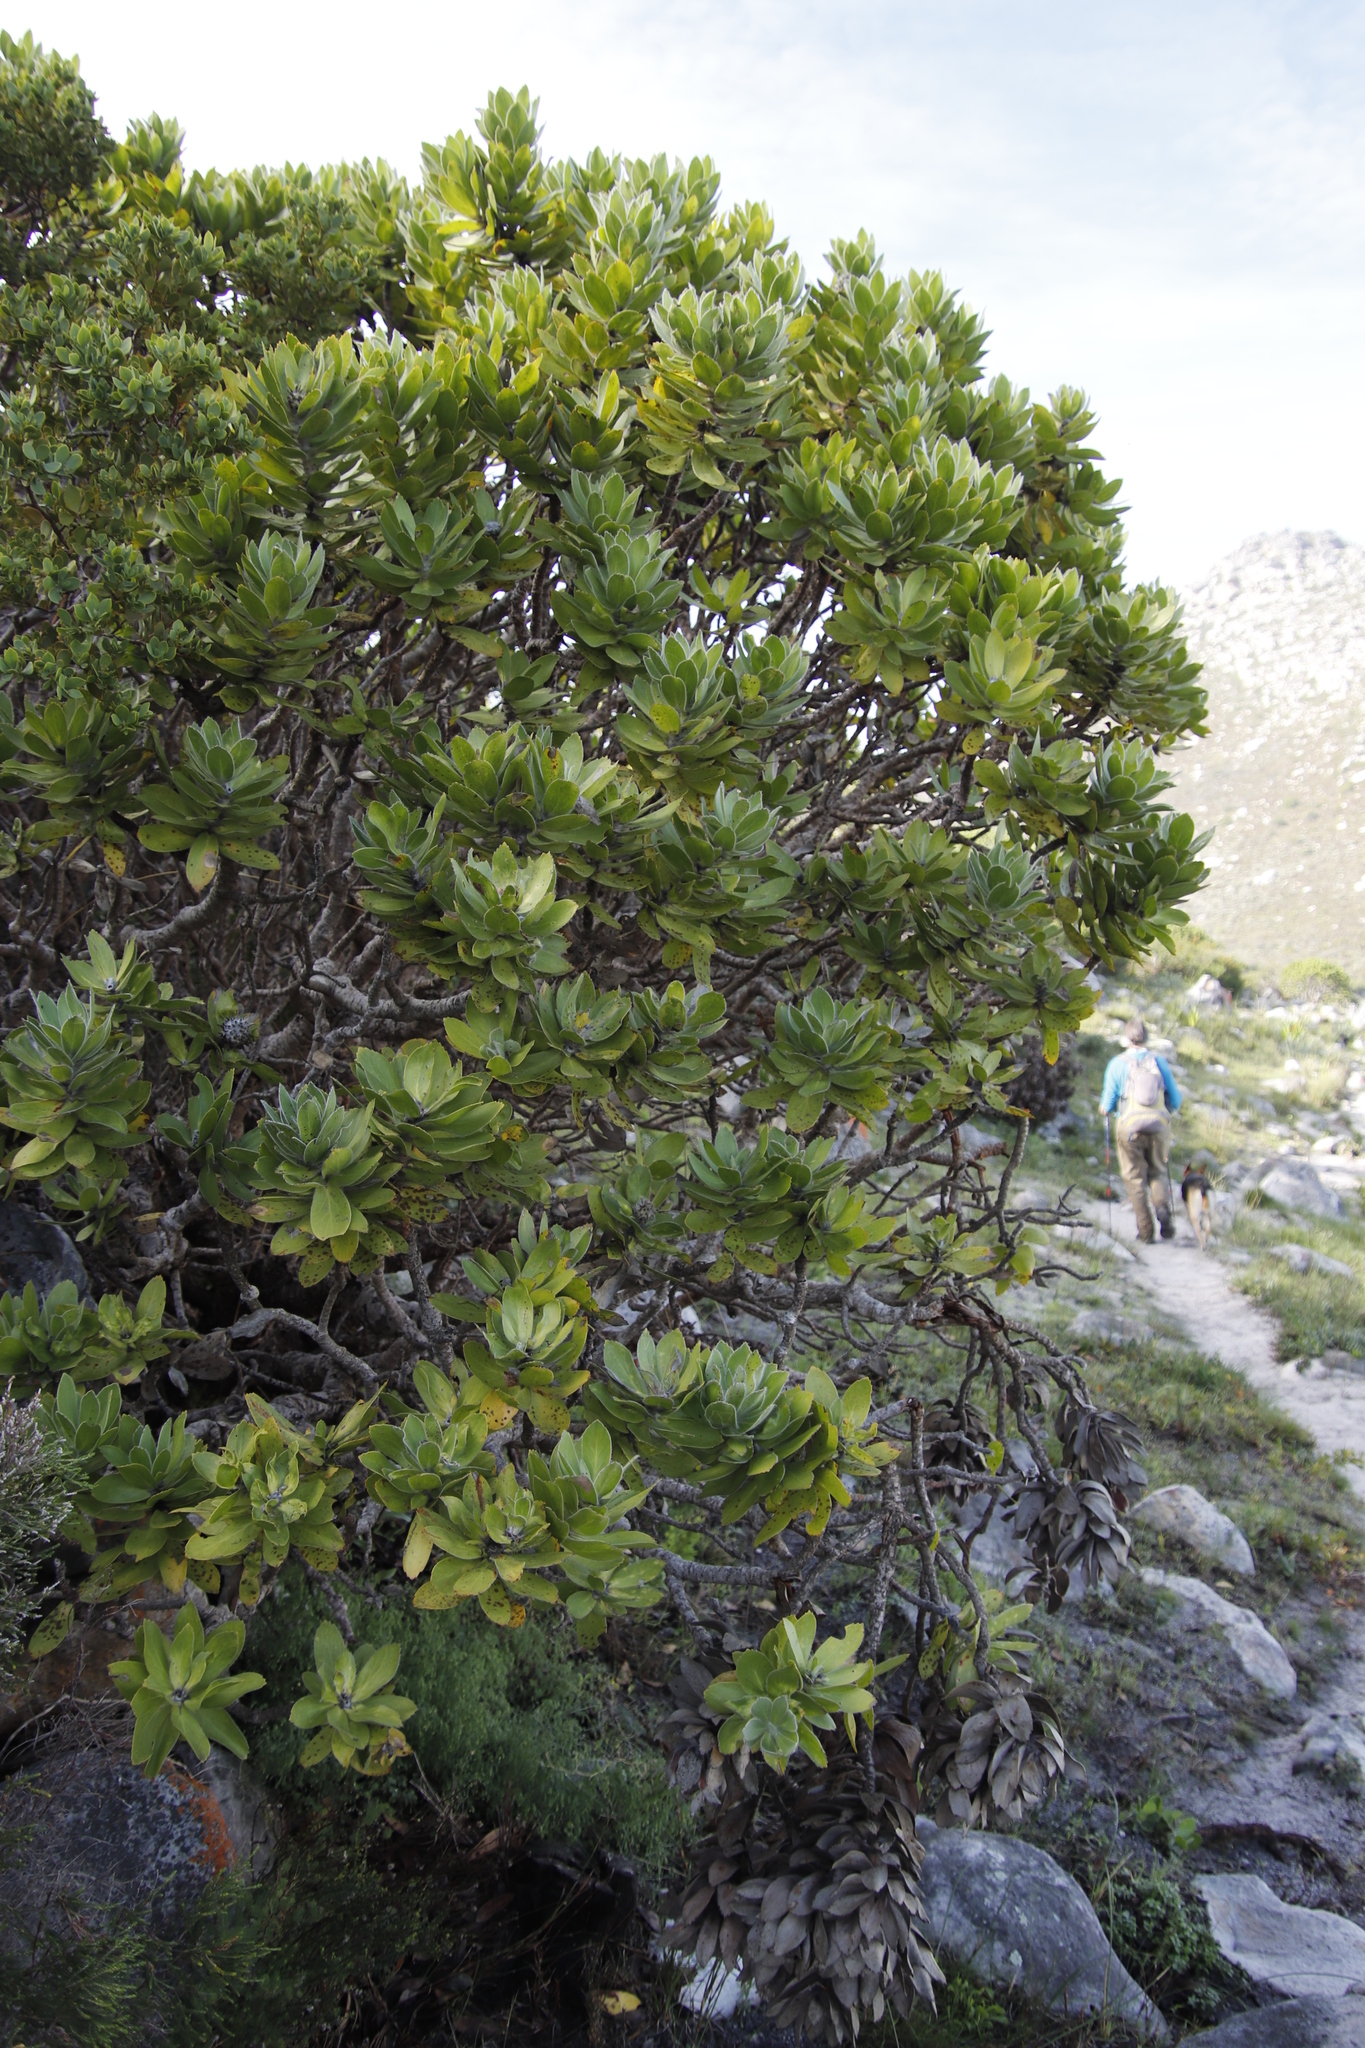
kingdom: Plantae
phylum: Tracheophyta
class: Magnoliopsida
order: Proteales
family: Proteaceae
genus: Leucospermum
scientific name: Leucospermum conocarpodendron
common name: Tree pincushion
